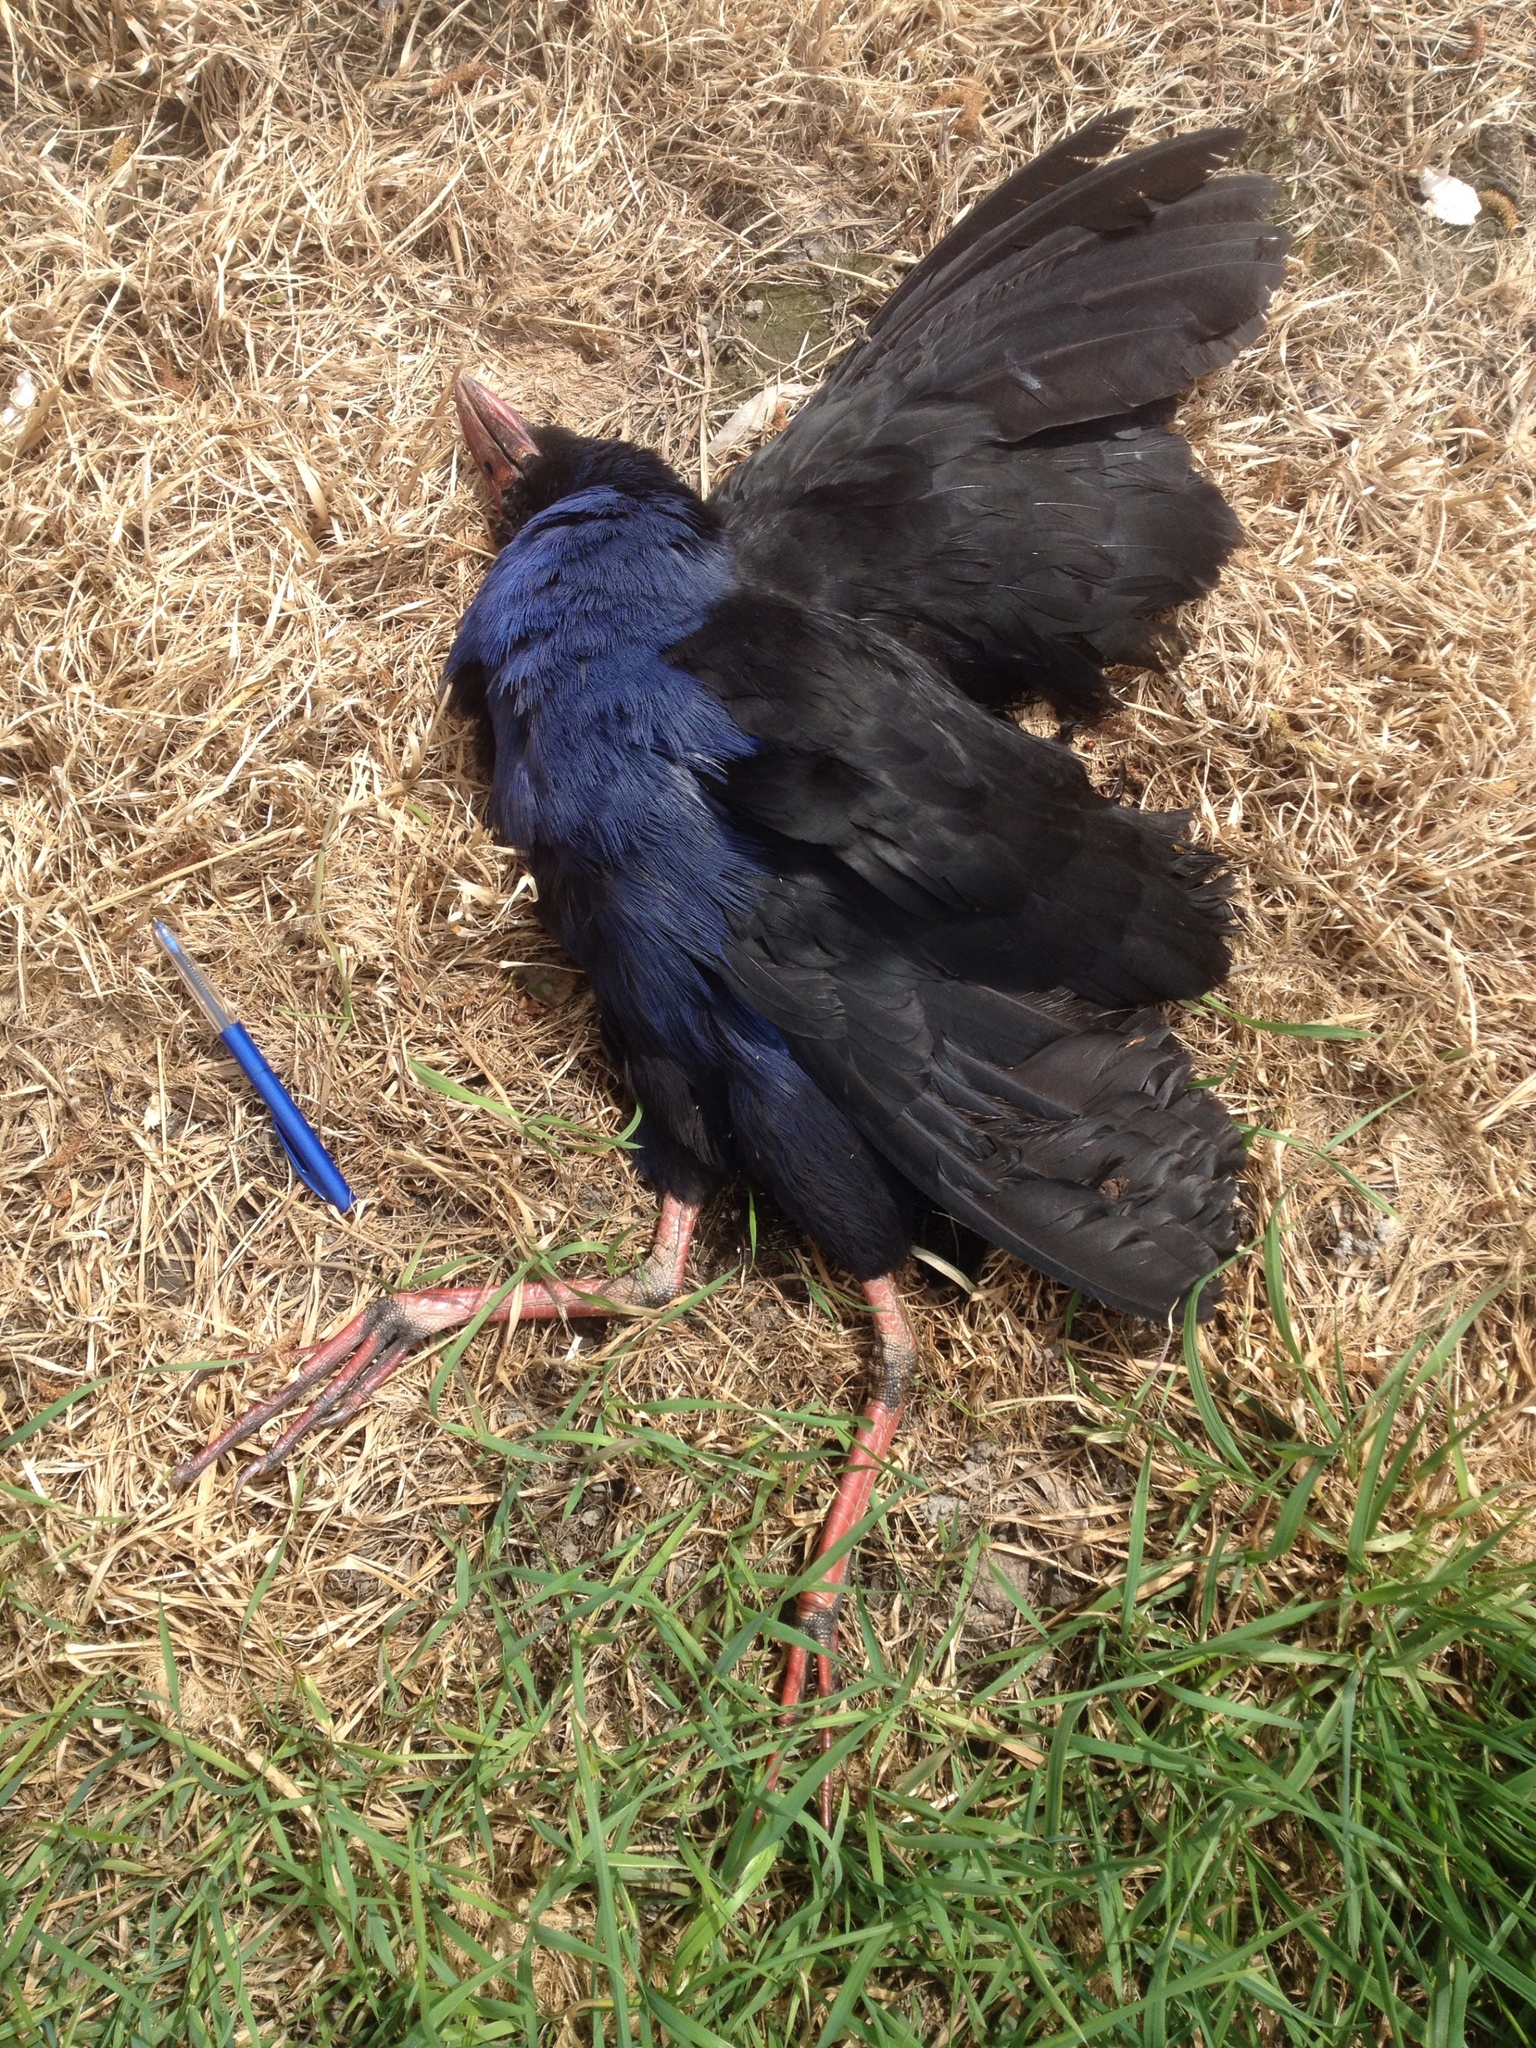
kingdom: Animalia
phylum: Chordata
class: Aves
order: Gruiformes
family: Rallidae
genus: Porphyrio
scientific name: Porphyrio melanotus
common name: Australasian swamphen
